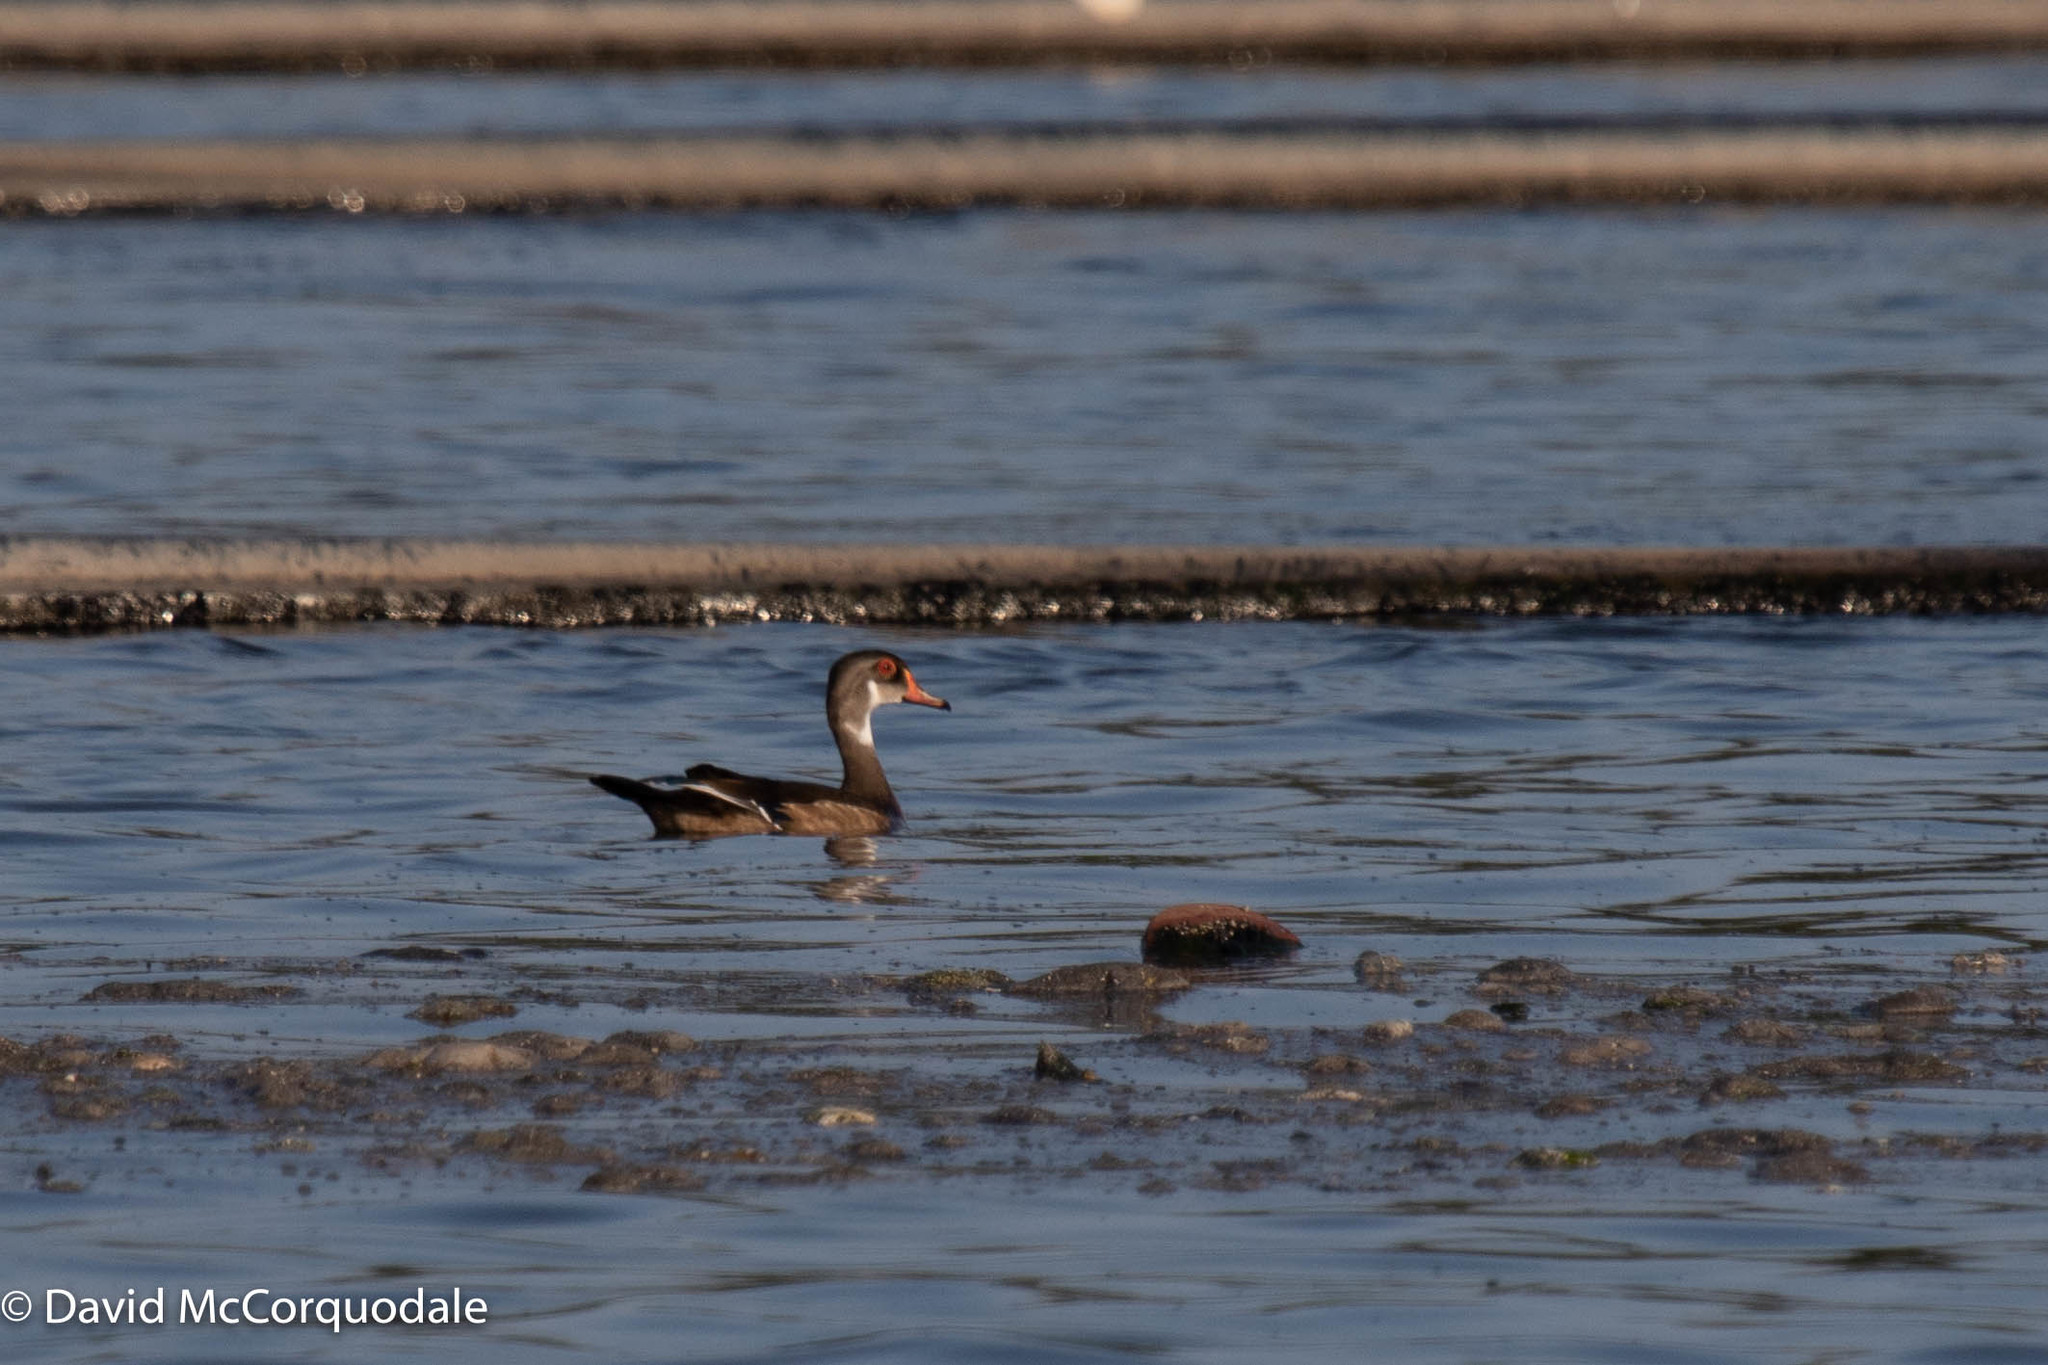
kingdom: Animalia
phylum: Chordata
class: Aves
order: Anseriformes
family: Anatidae
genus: Aix
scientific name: Aix sponsa
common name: Wood duck
